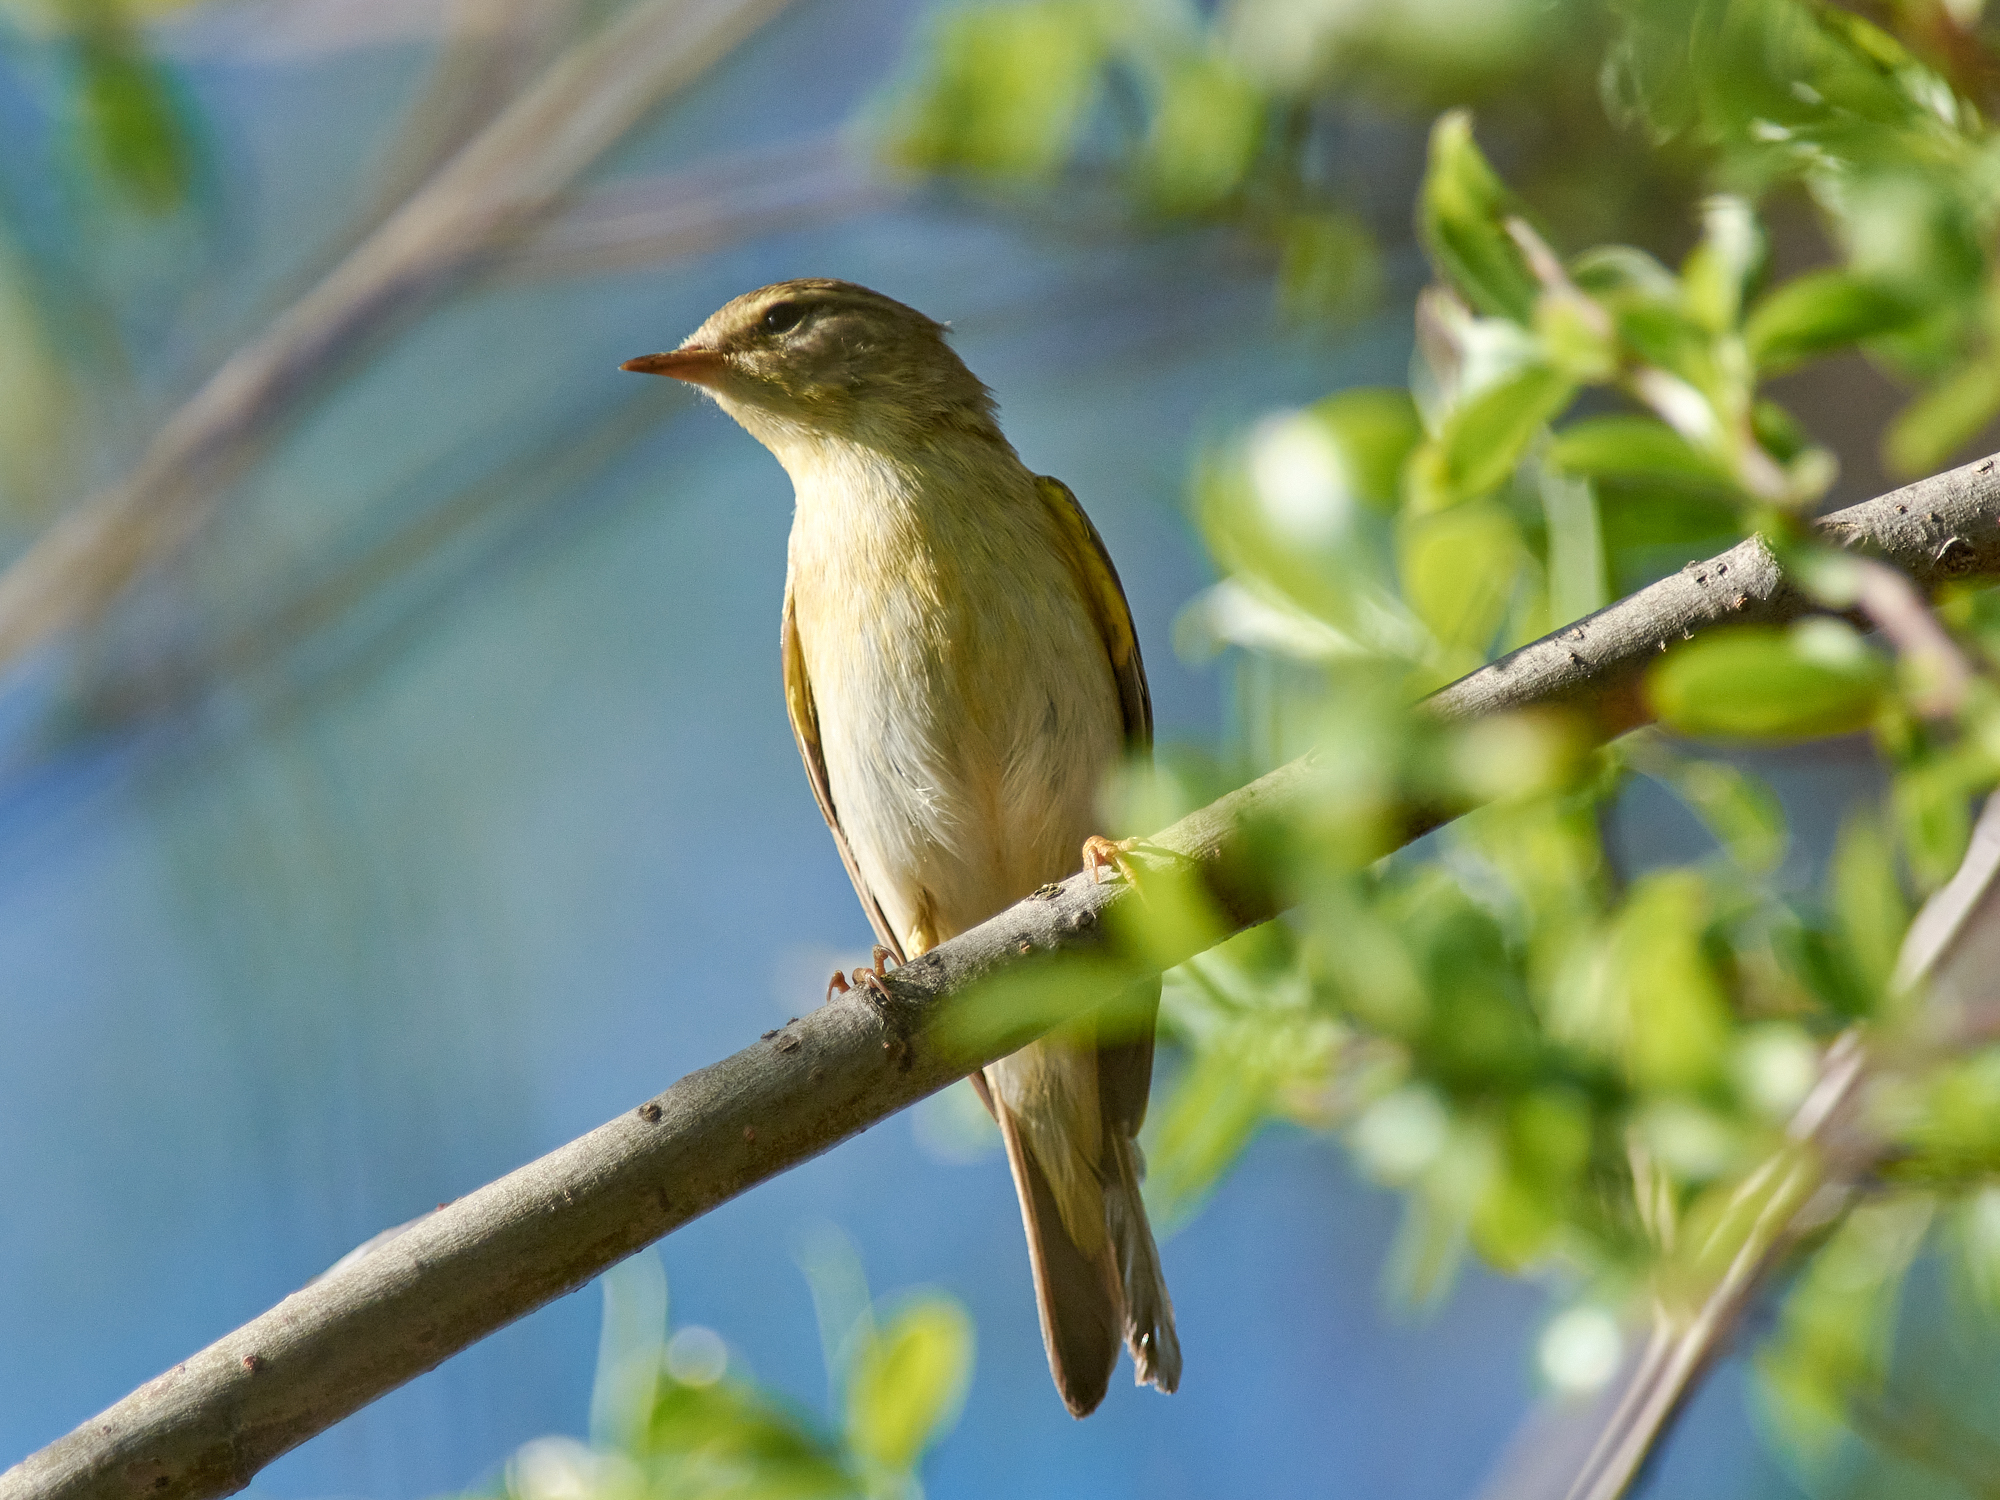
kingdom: Animalia
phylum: Chordata
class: Aves
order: Passeriformes
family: Phylloscopidae
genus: Phylloscopus
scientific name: Phylloscopus trochilus
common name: Willow warbler
